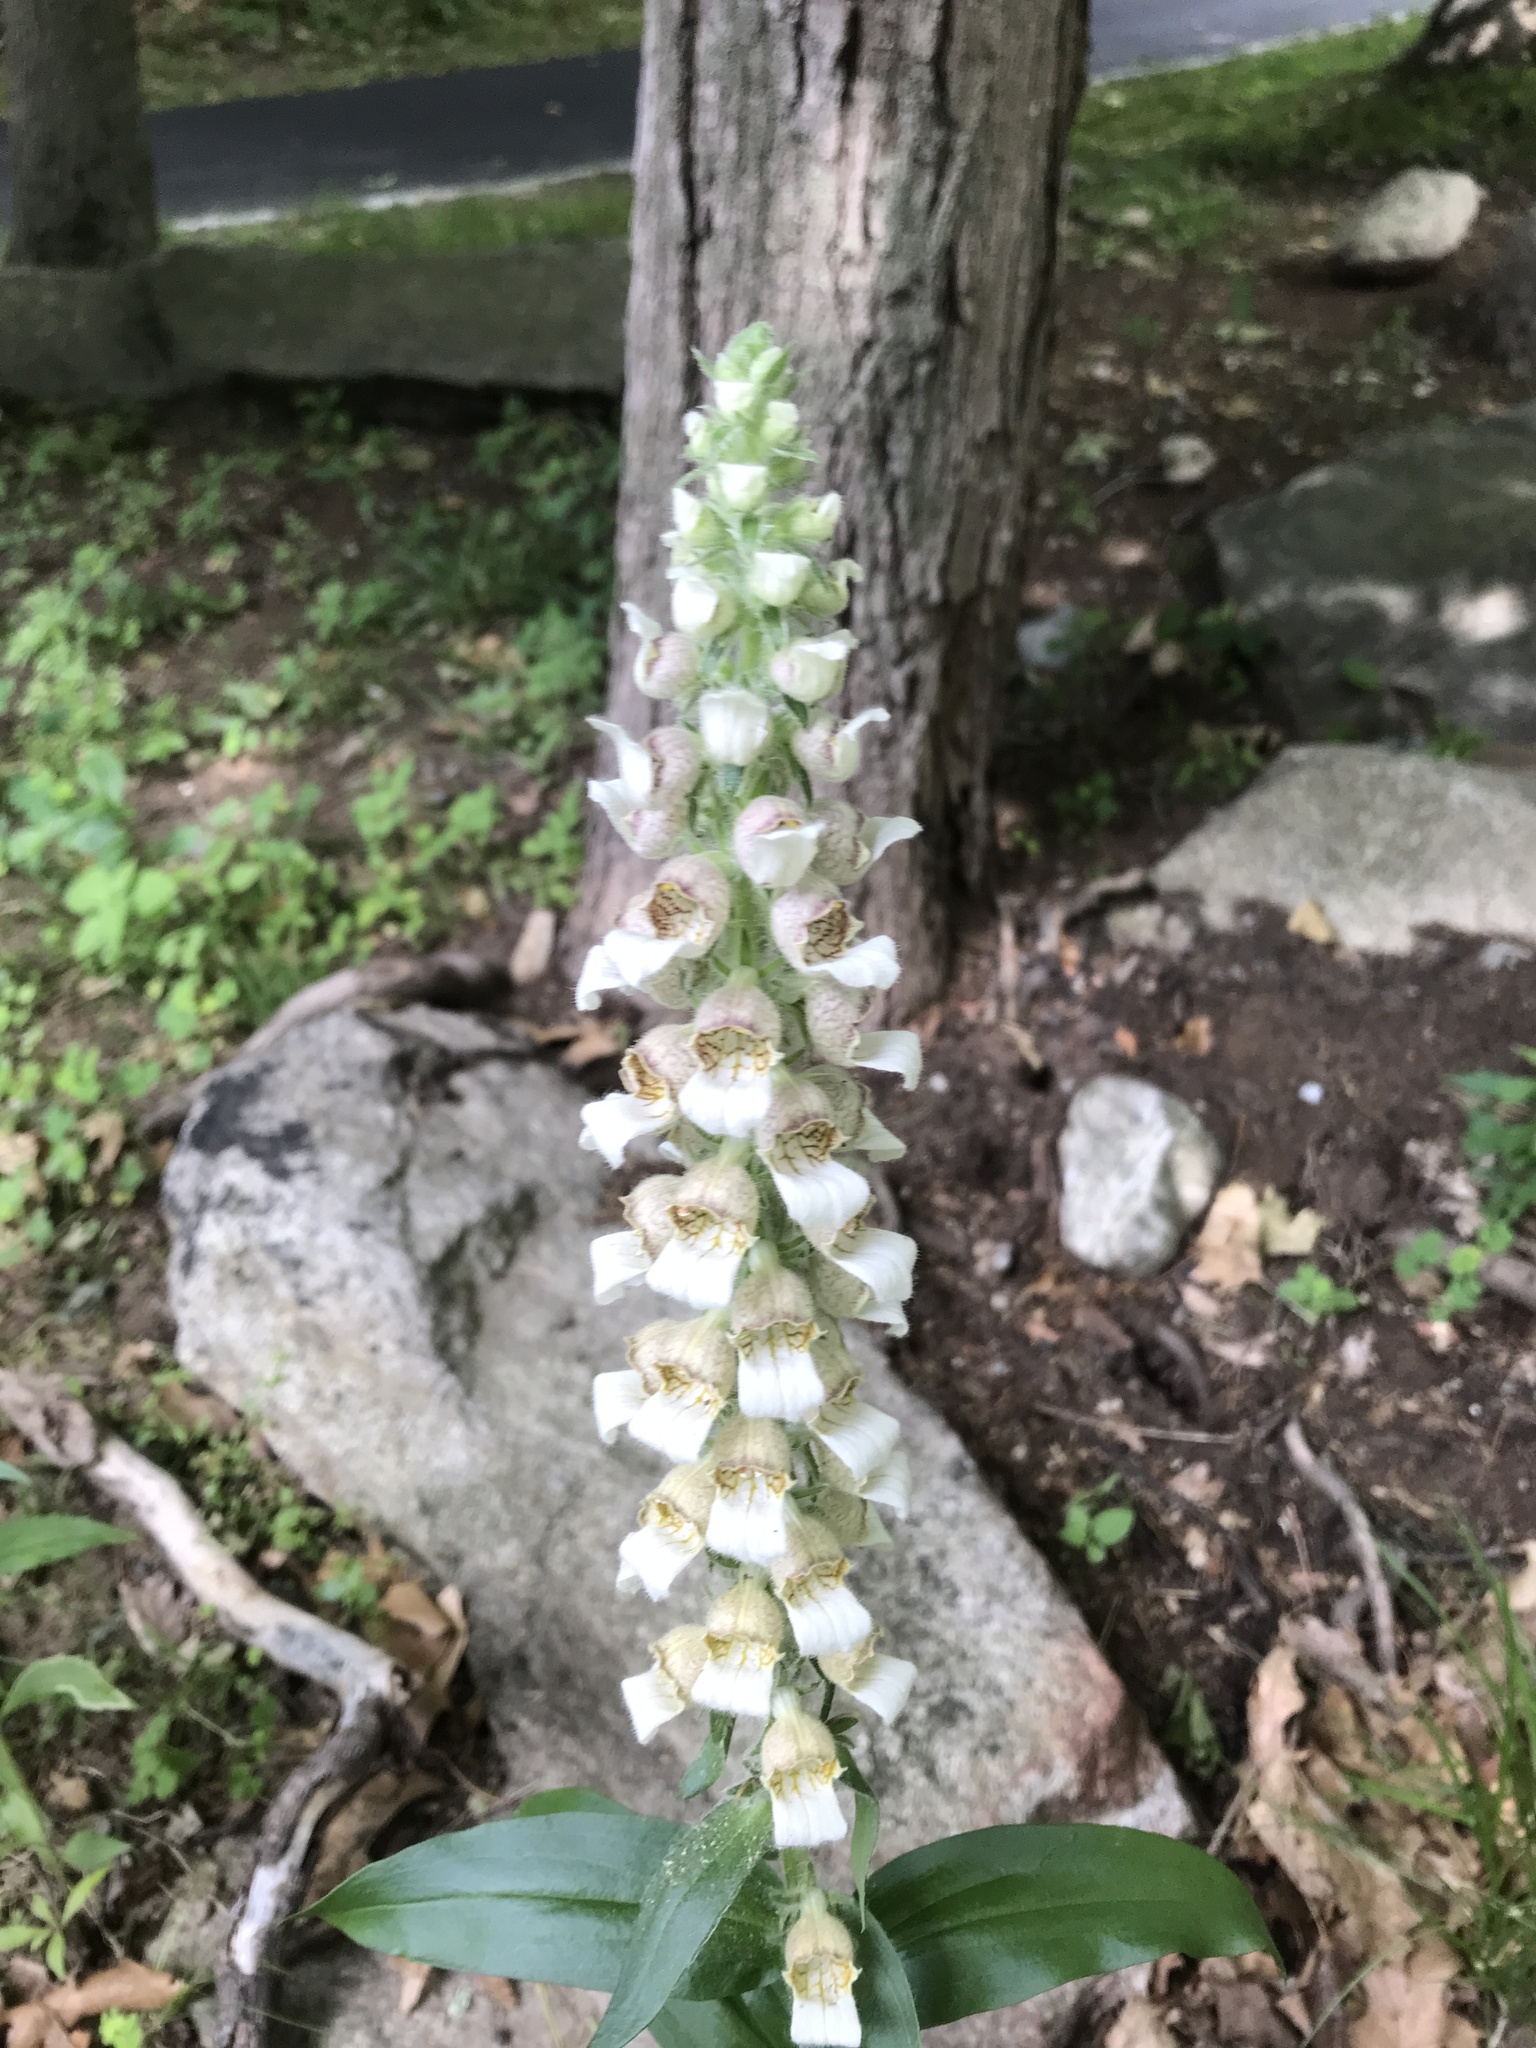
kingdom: Plantae
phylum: Tracheophyta
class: Magnoliopsida
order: Lamiales
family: Plantaginaceae
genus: Digitalis
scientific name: Digitalis lanata
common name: Grecian foxglove
